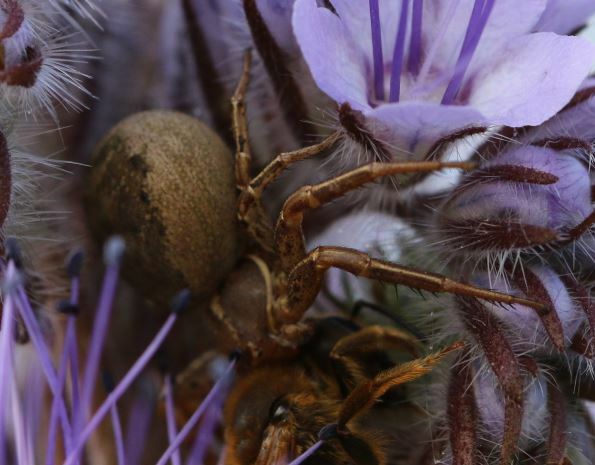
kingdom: Animalia
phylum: Arthropoda
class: Arachnida
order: Araneae
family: Thomisidae
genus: Xysticus
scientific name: Xysticus
